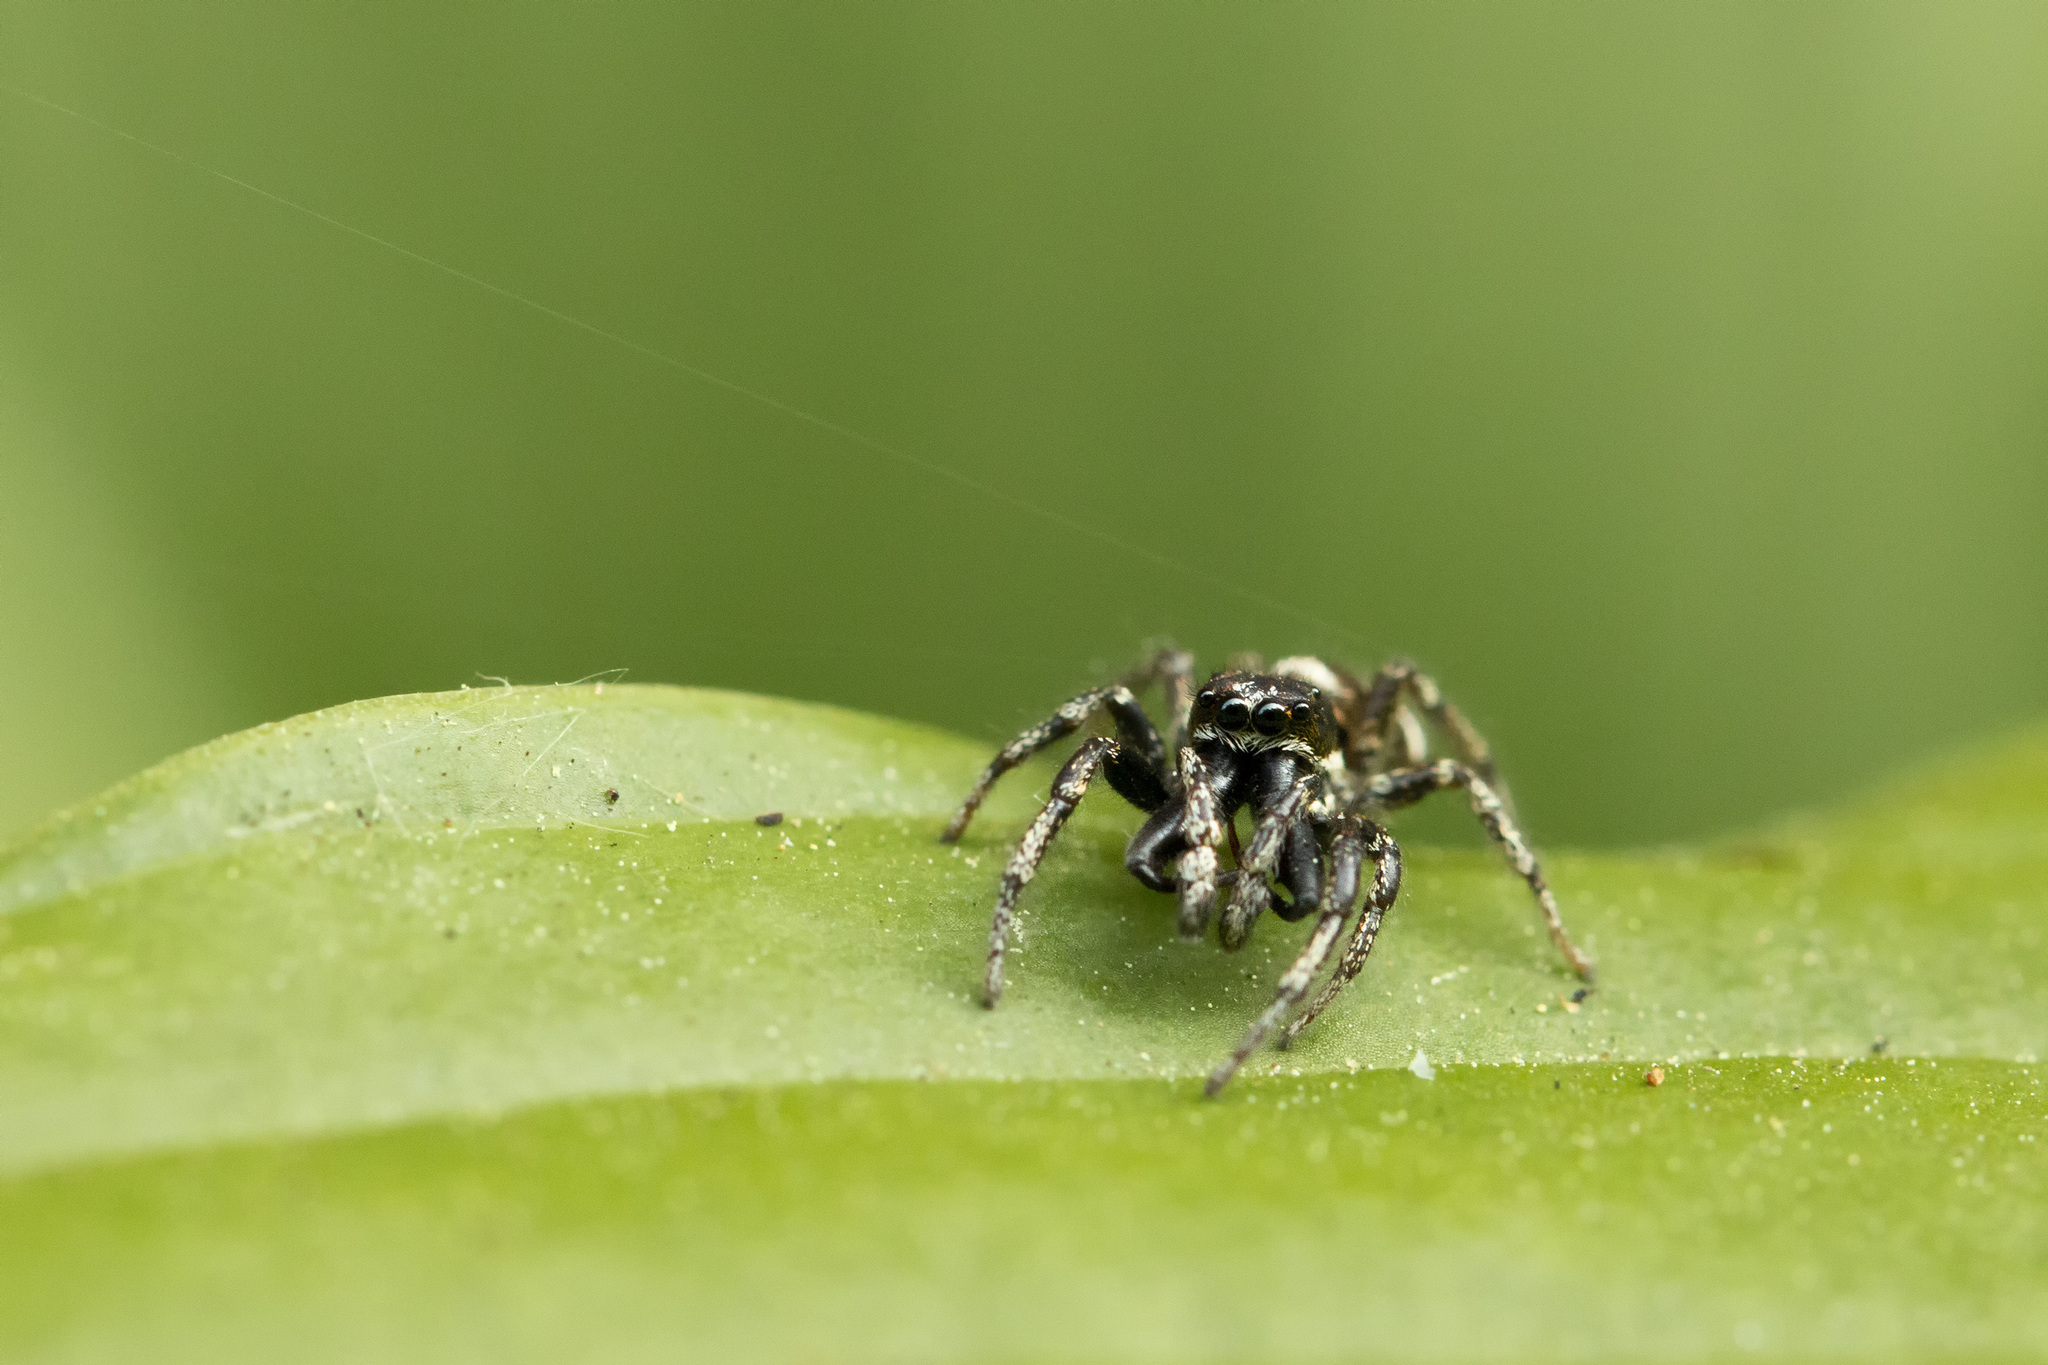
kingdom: Animalia
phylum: Arthropoda
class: Arachnida
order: Araneae
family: Salticidae
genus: Salticus
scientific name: Salticus scenicus
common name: Zebra jumper
